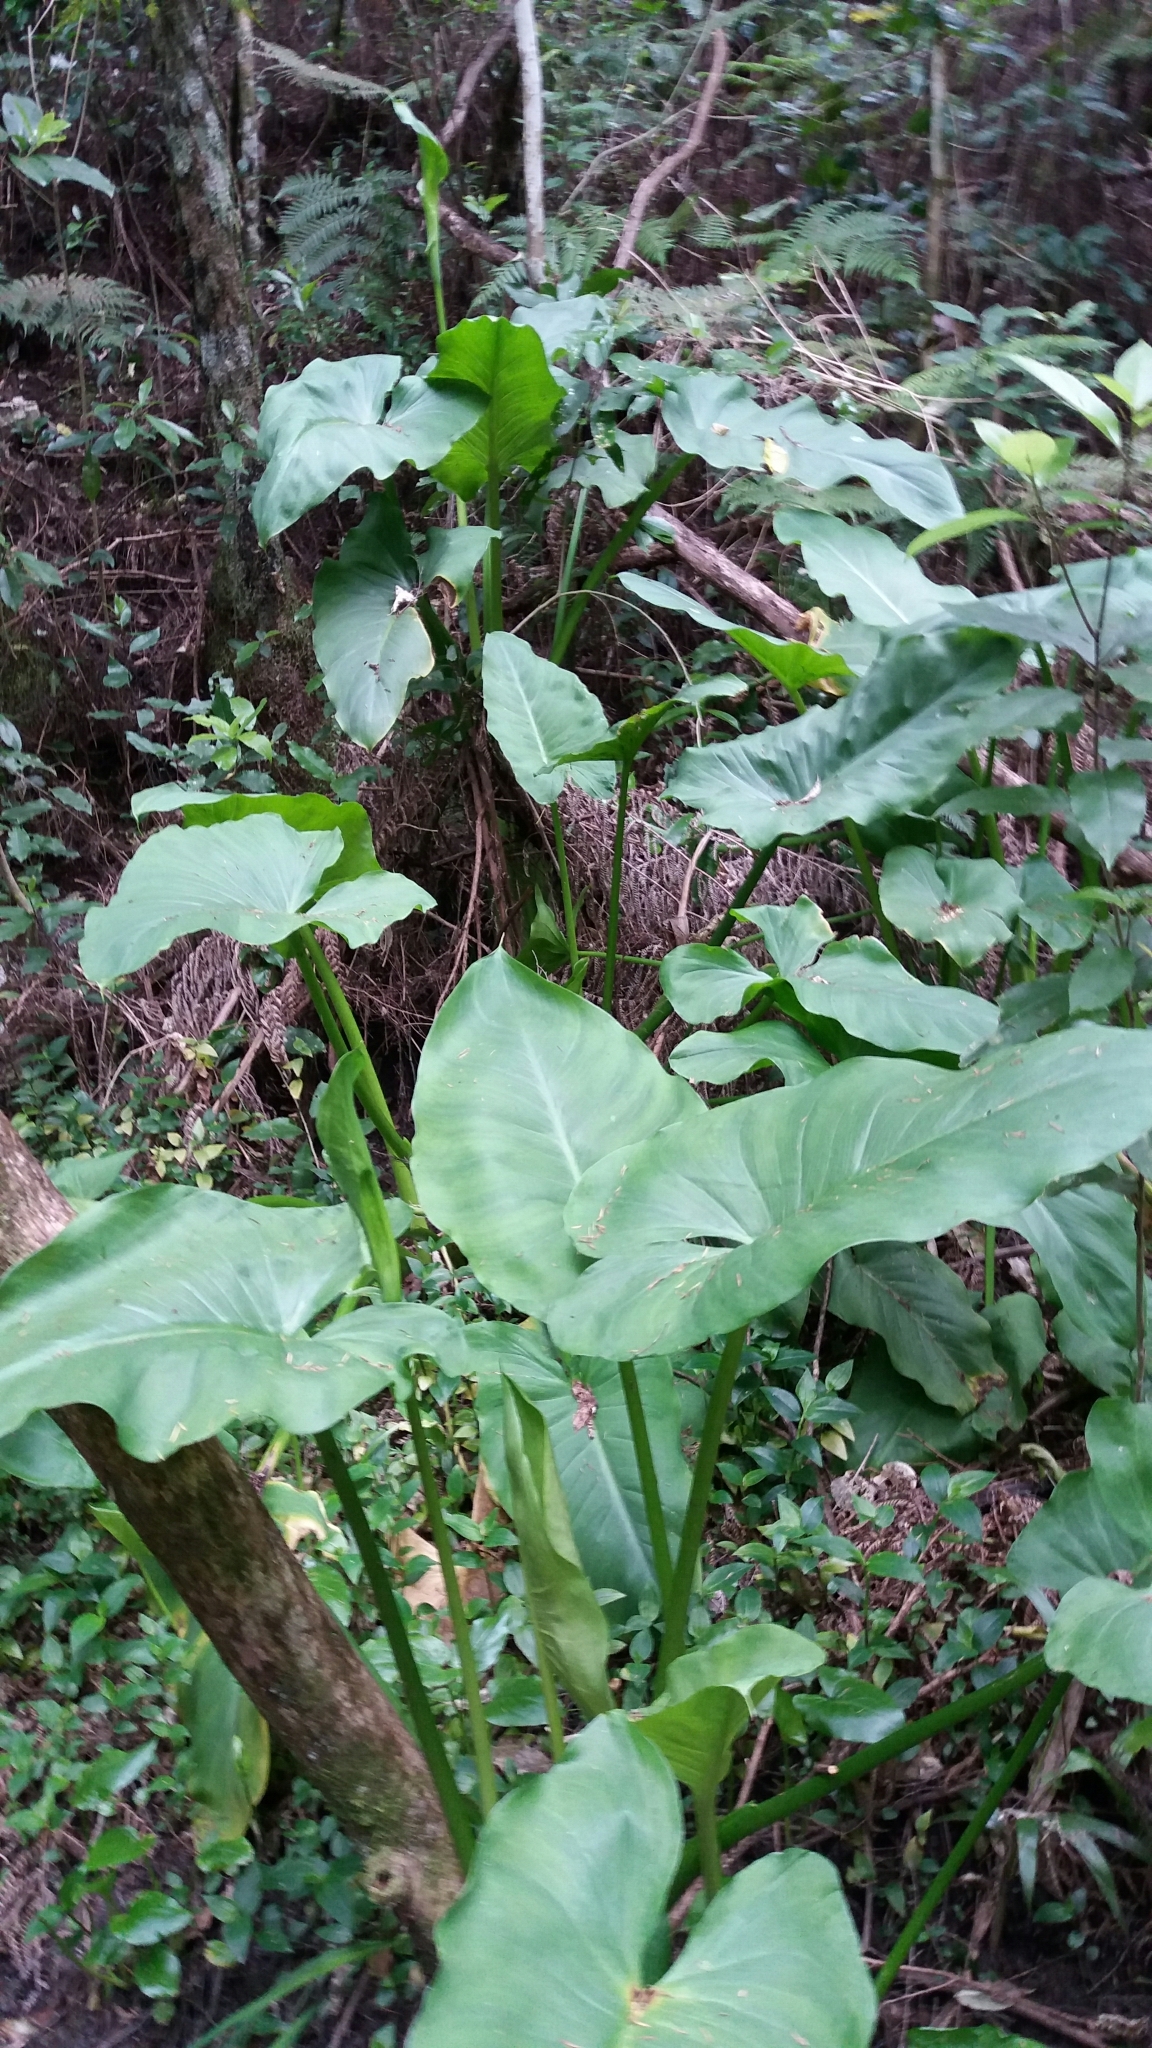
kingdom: Plantae
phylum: Tracheophyta
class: Liliopsida
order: Alismatales
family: Araceae
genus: Zantedeschia
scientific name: Zantedeschia aethiopica
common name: Altar-lily
